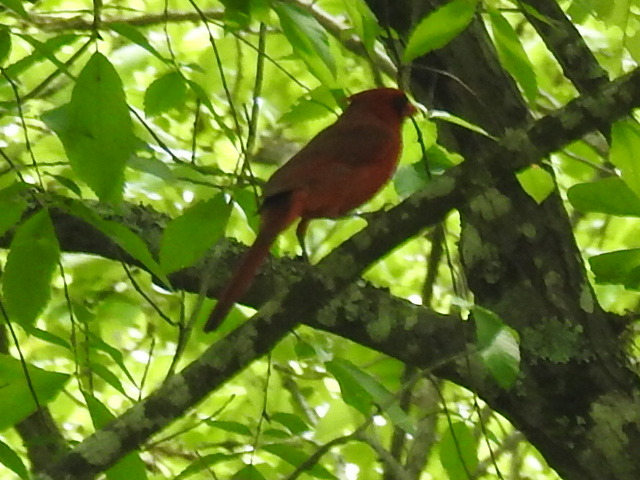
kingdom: Animalia
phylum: Chordata
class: Aves
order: Passeriformes
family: Cardinalidae
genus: Cardinalis
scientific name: Cardinalis cardinalis
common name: Northern cardinal
